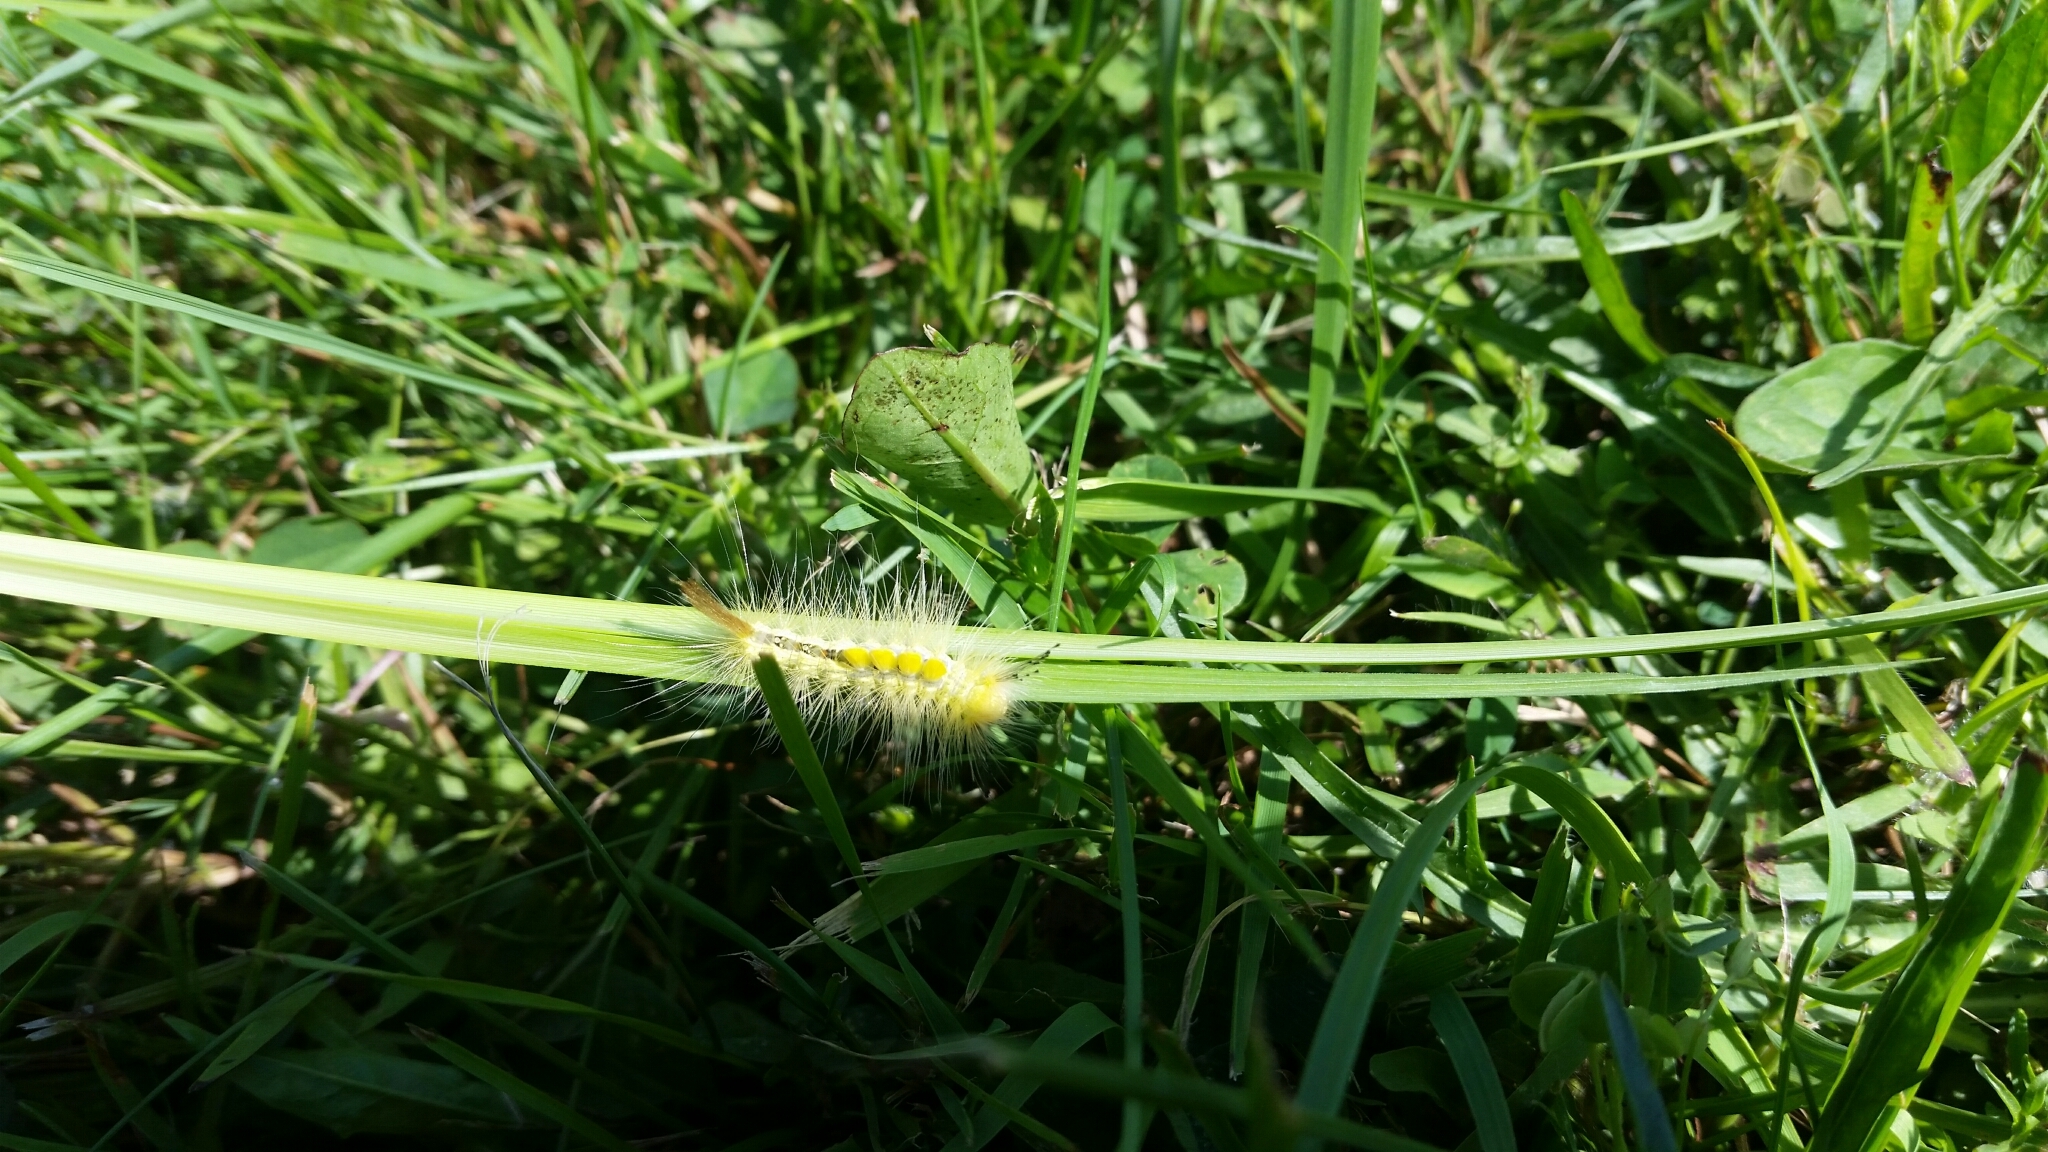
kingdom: Animalia
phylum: Arthropoda
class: Insecta
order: Lepidoptera
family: Erebidae
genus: Orgyia
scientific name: Orgyia definita
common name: Definite tussock moth
